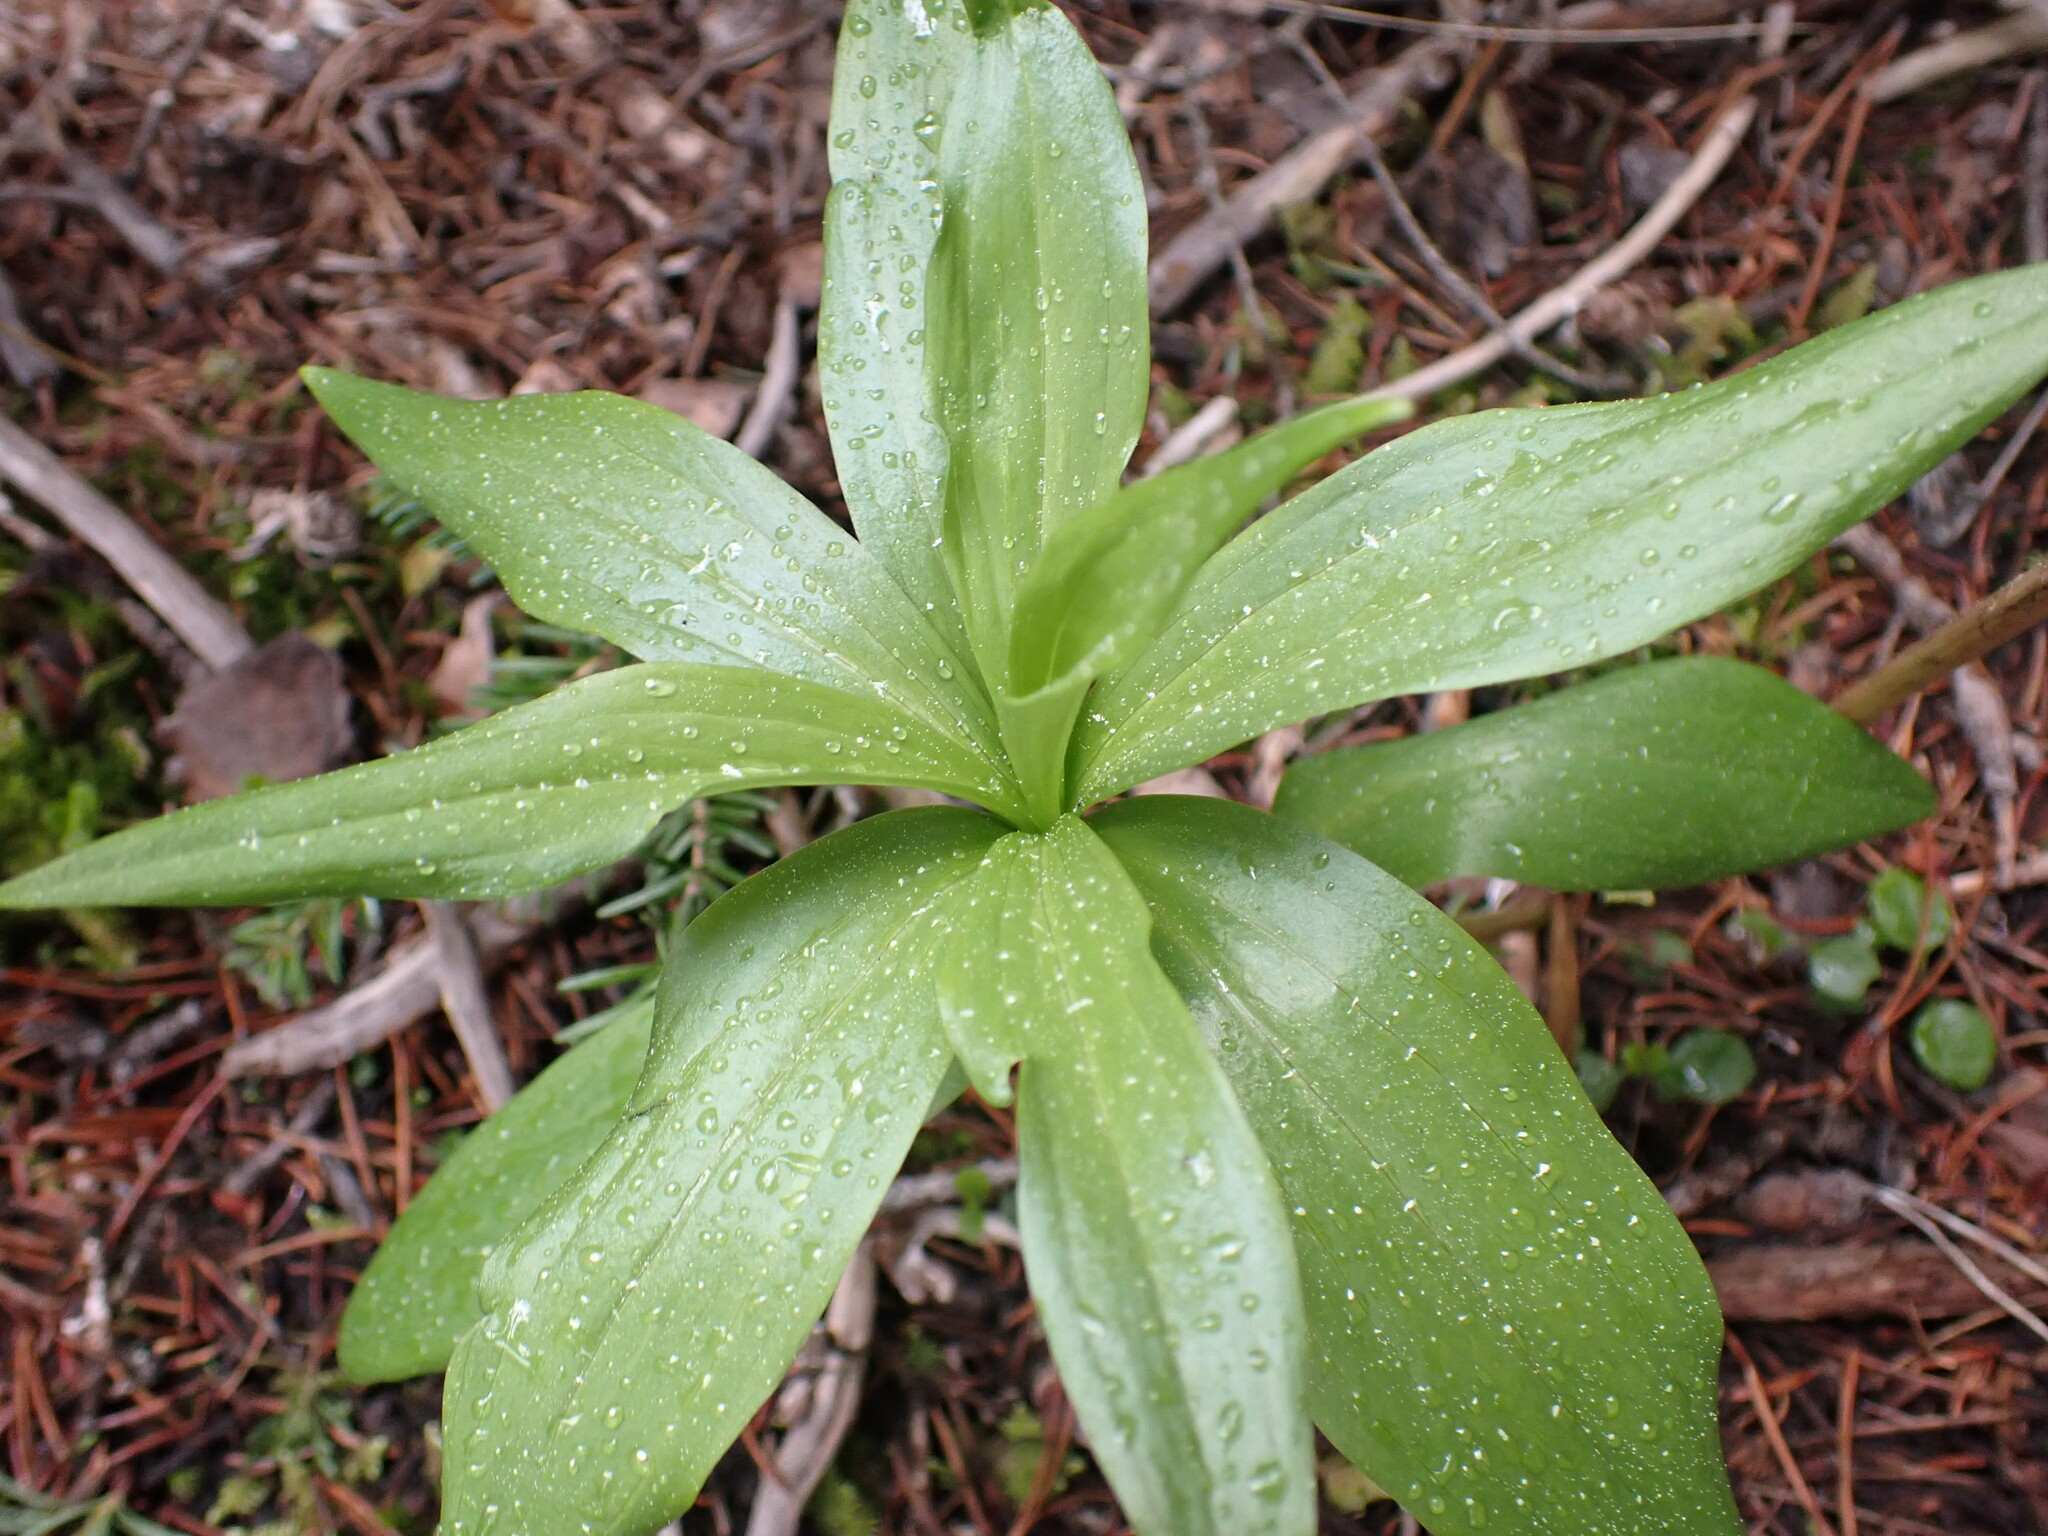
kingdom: Plantae
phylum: Tracheophyta
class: Liliopsida
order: Liliales
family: Liliaceae
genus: Lilium
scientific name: Lilium columbianum
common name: Columbia lily
